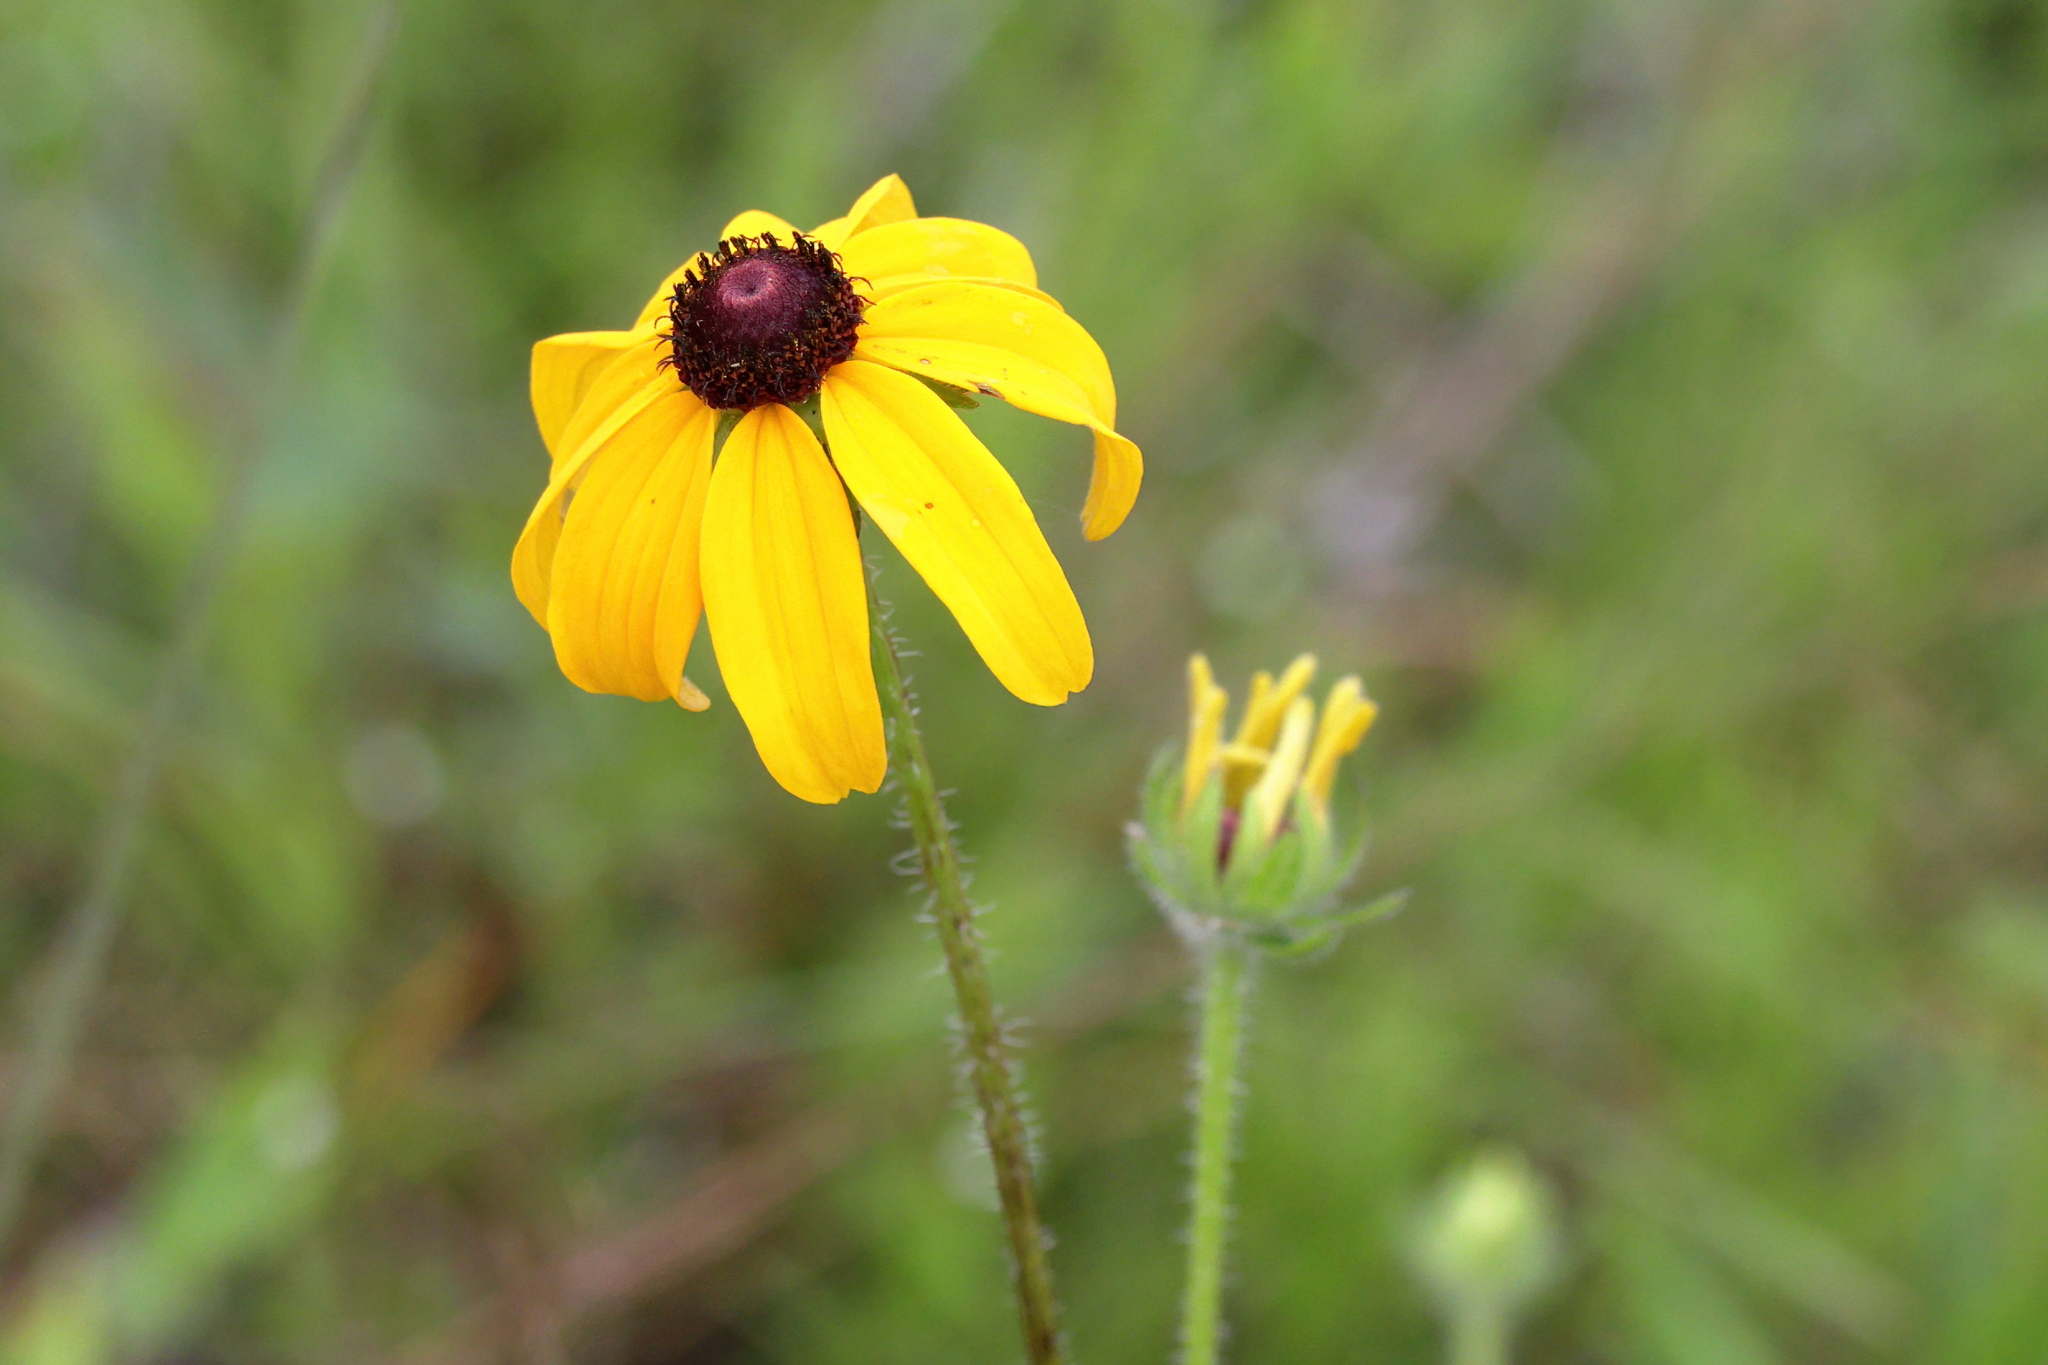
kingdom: Plantae
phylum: Tracheophyta
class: Magnoliopsida
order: Asterales
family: Asteraceae
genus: Rudbeckia
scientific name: Rudbeckia hirta
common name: Black-eyed-susan
